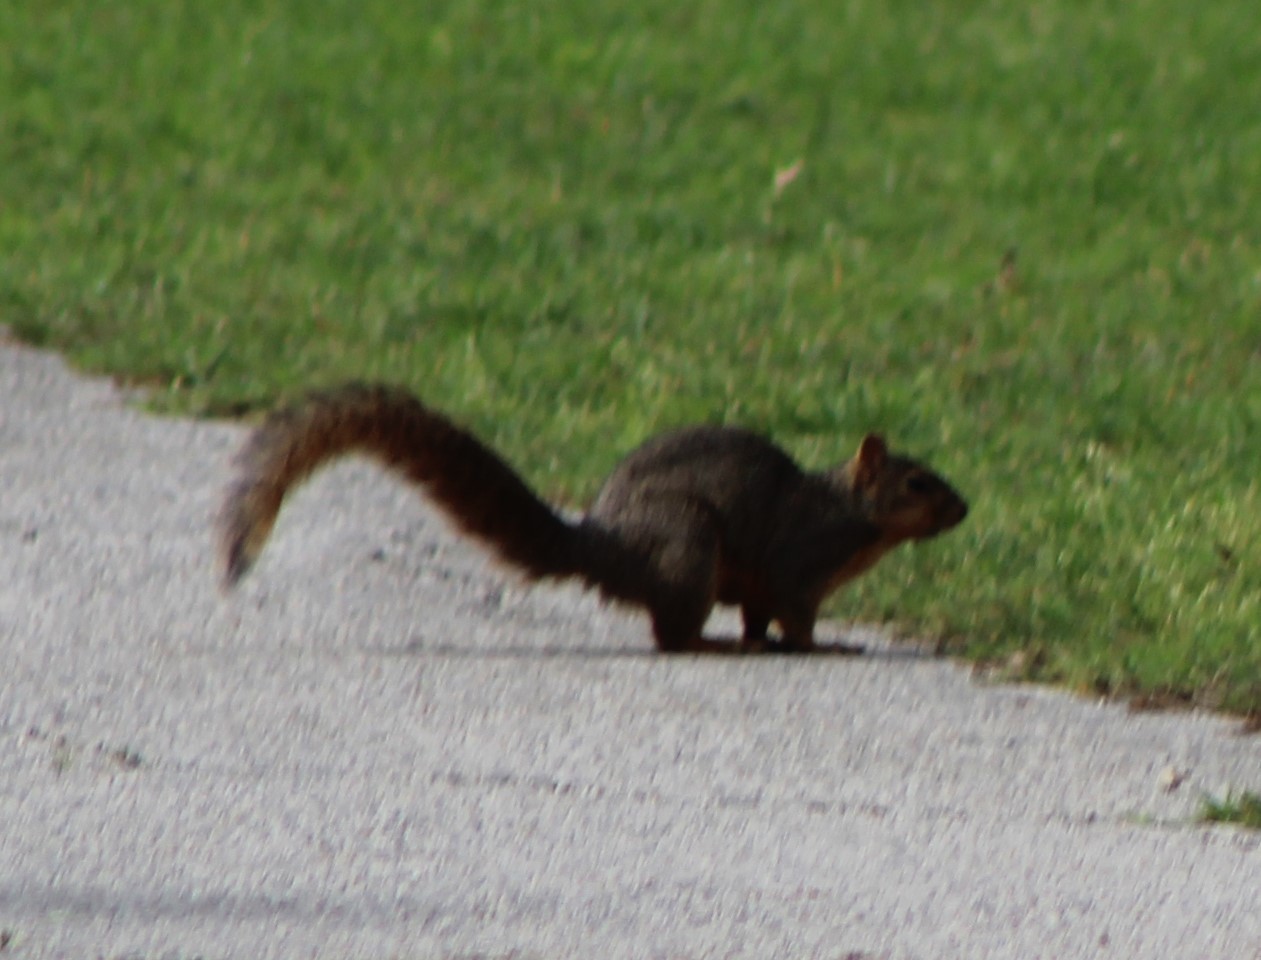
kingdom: Animalia
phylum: Chordata
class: Mammalia
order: Rodentia
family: Sciuridae
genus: Sciurus
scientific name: Sciurus niger
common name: Fox squirrel
